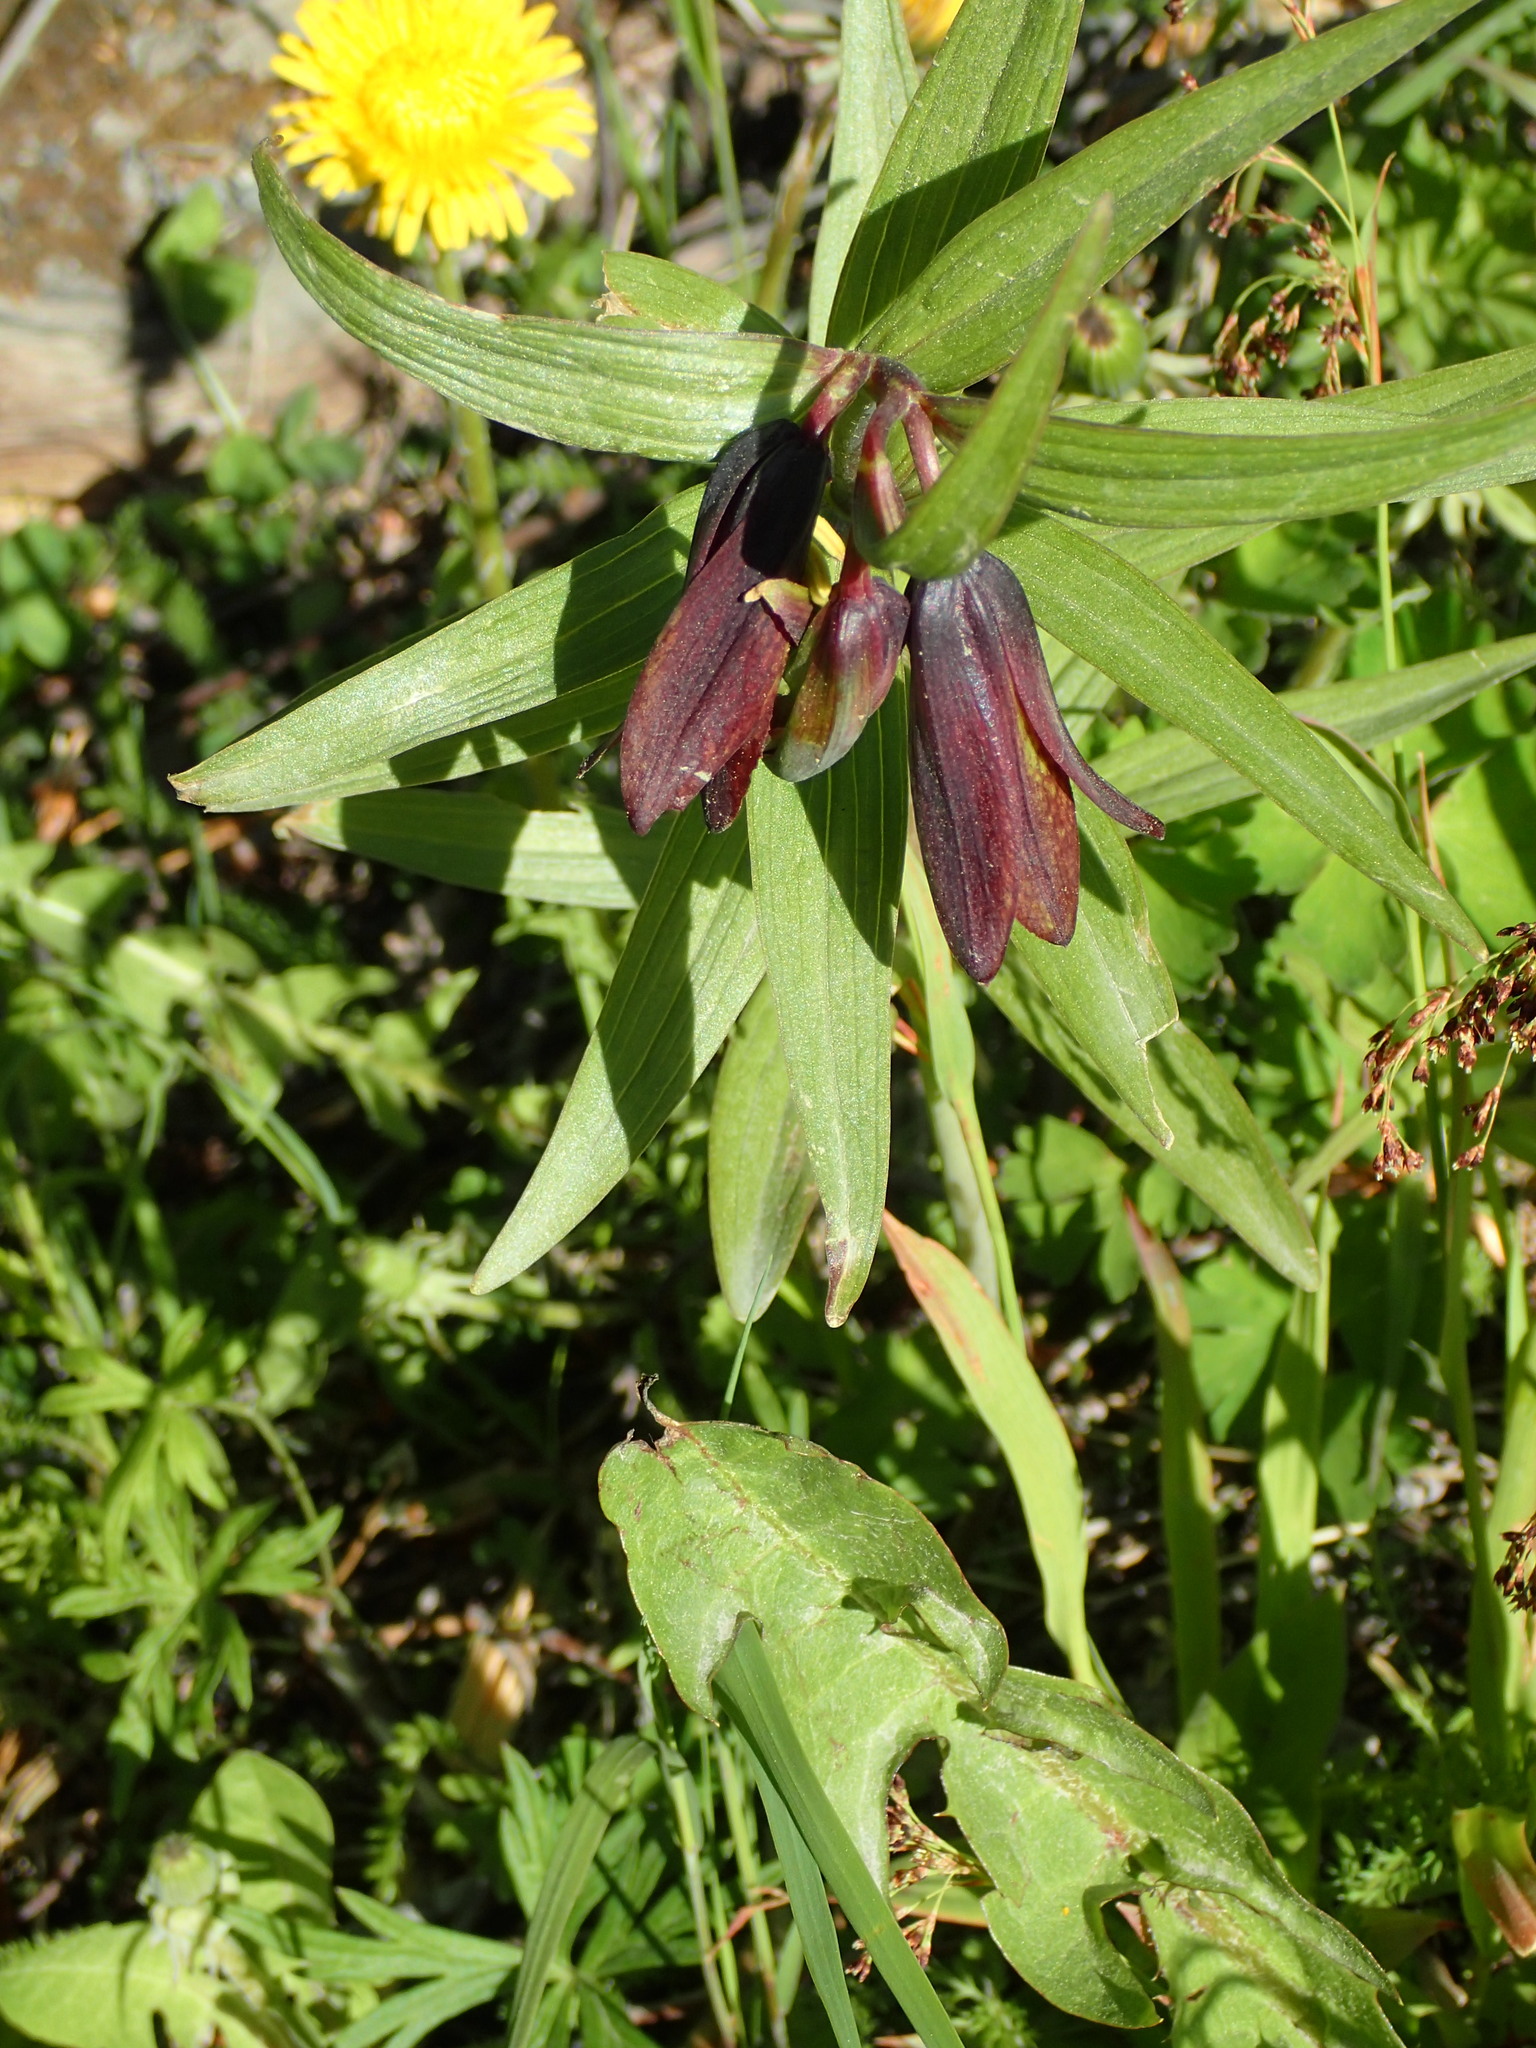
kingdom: Plantae
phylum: Tracheophyta
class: Liliopsida
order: Liliales
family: Liliaceae
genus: Fritillaria
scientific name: Fritillaria camschatcensis
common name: Kamchatka fritillary
